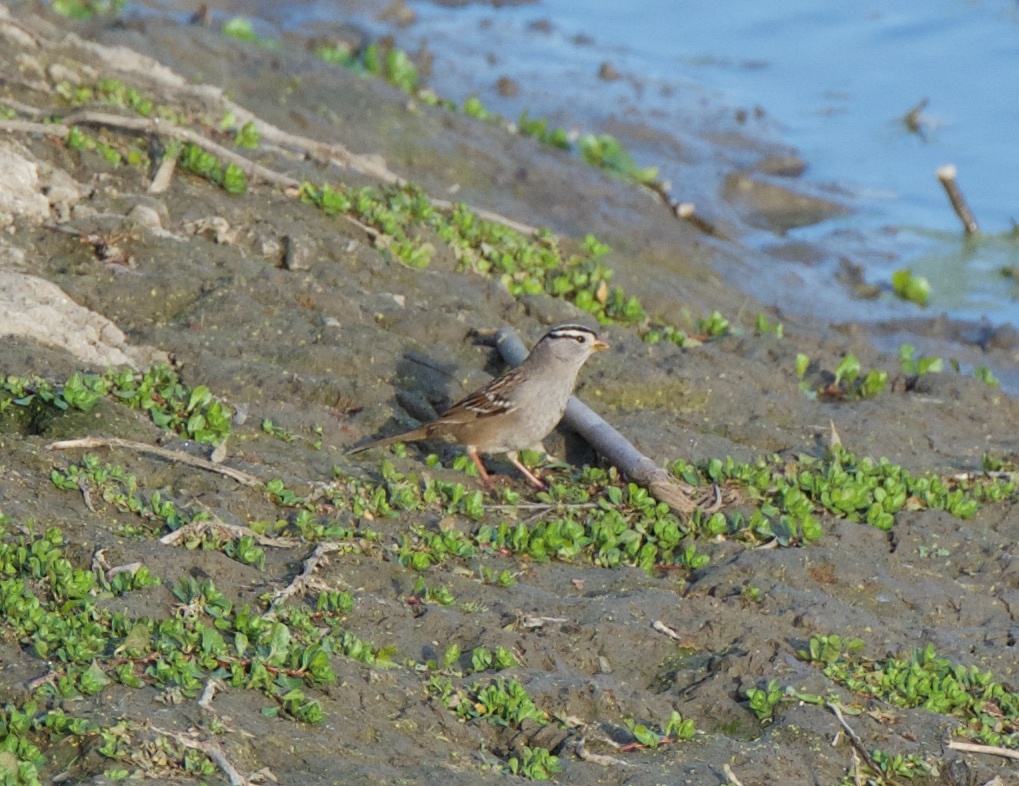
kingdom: Animalia
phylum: Chordata
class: Aves
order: Passeriformes
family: Passerellidae
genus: Zonotrichia
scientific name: Zonotrichia leucophrys
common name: White-crowned sparrow
